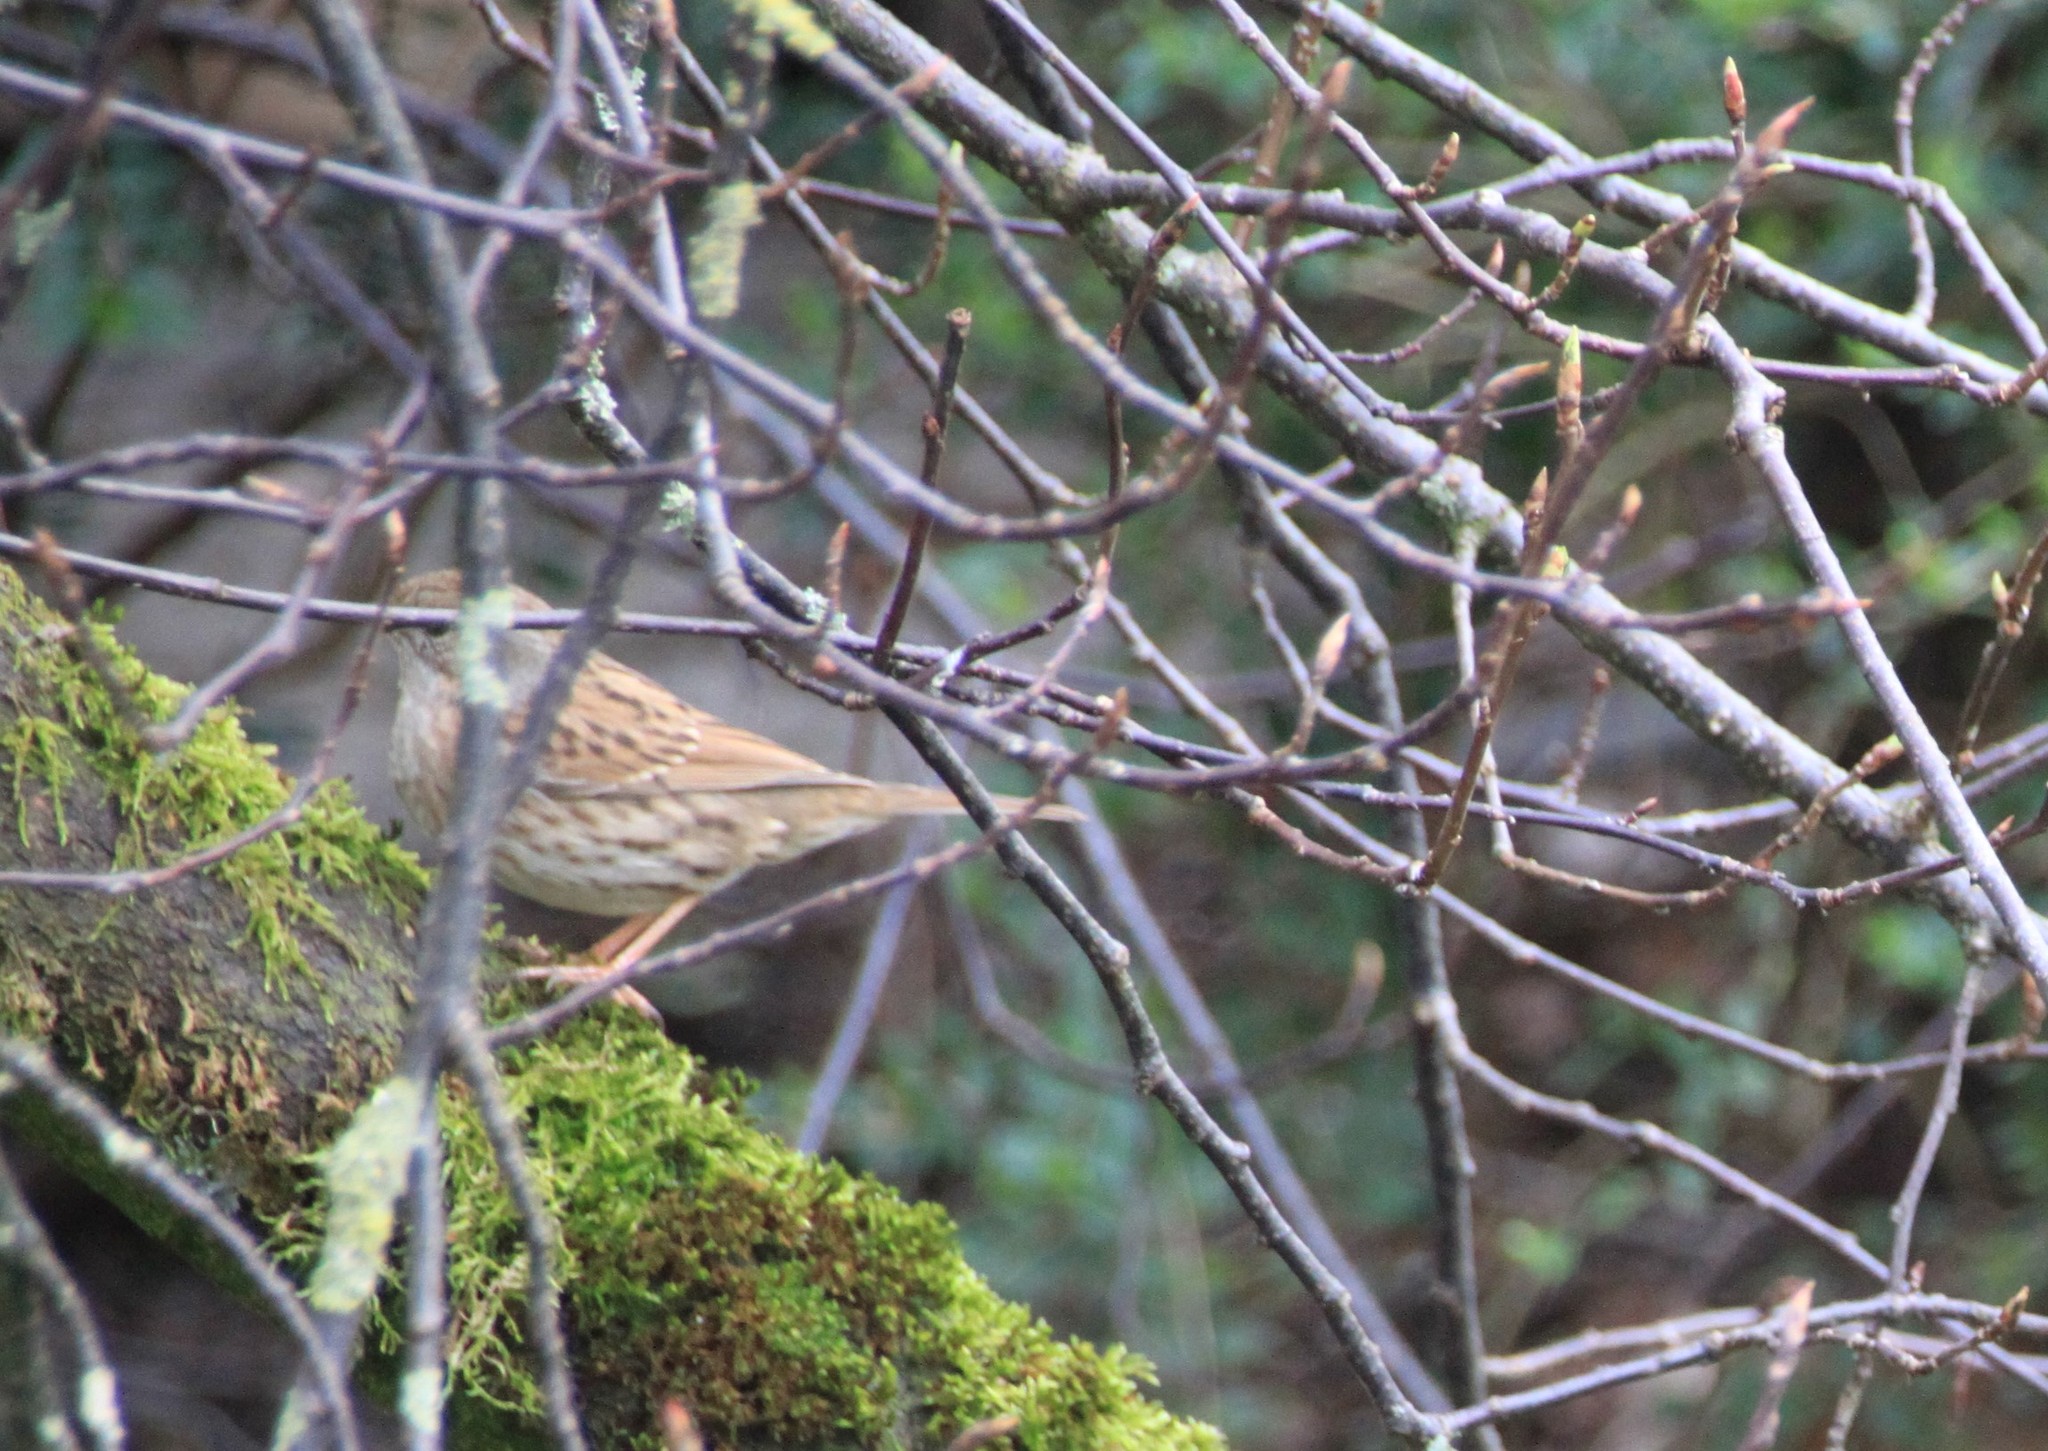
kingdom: Animalia
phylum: Chordata
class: Aves
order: Passeriformes
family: Prunellidae
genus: Prunella
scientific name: Prunella modularis
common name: Dunnock
